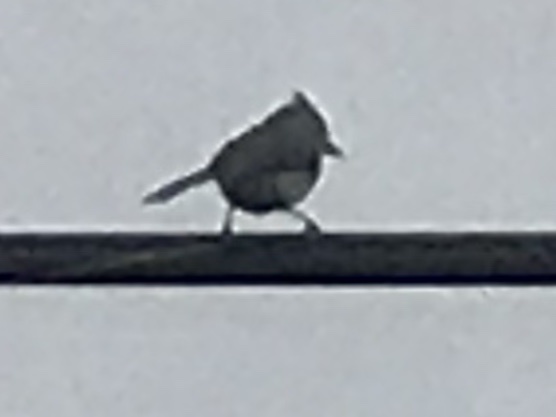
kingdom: Animalia
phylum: Chordata
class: Aves
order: Passeriformes
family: Paridae
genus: Baeolophus
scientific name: Baeolophus bicolor
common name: Tufted titmouse
